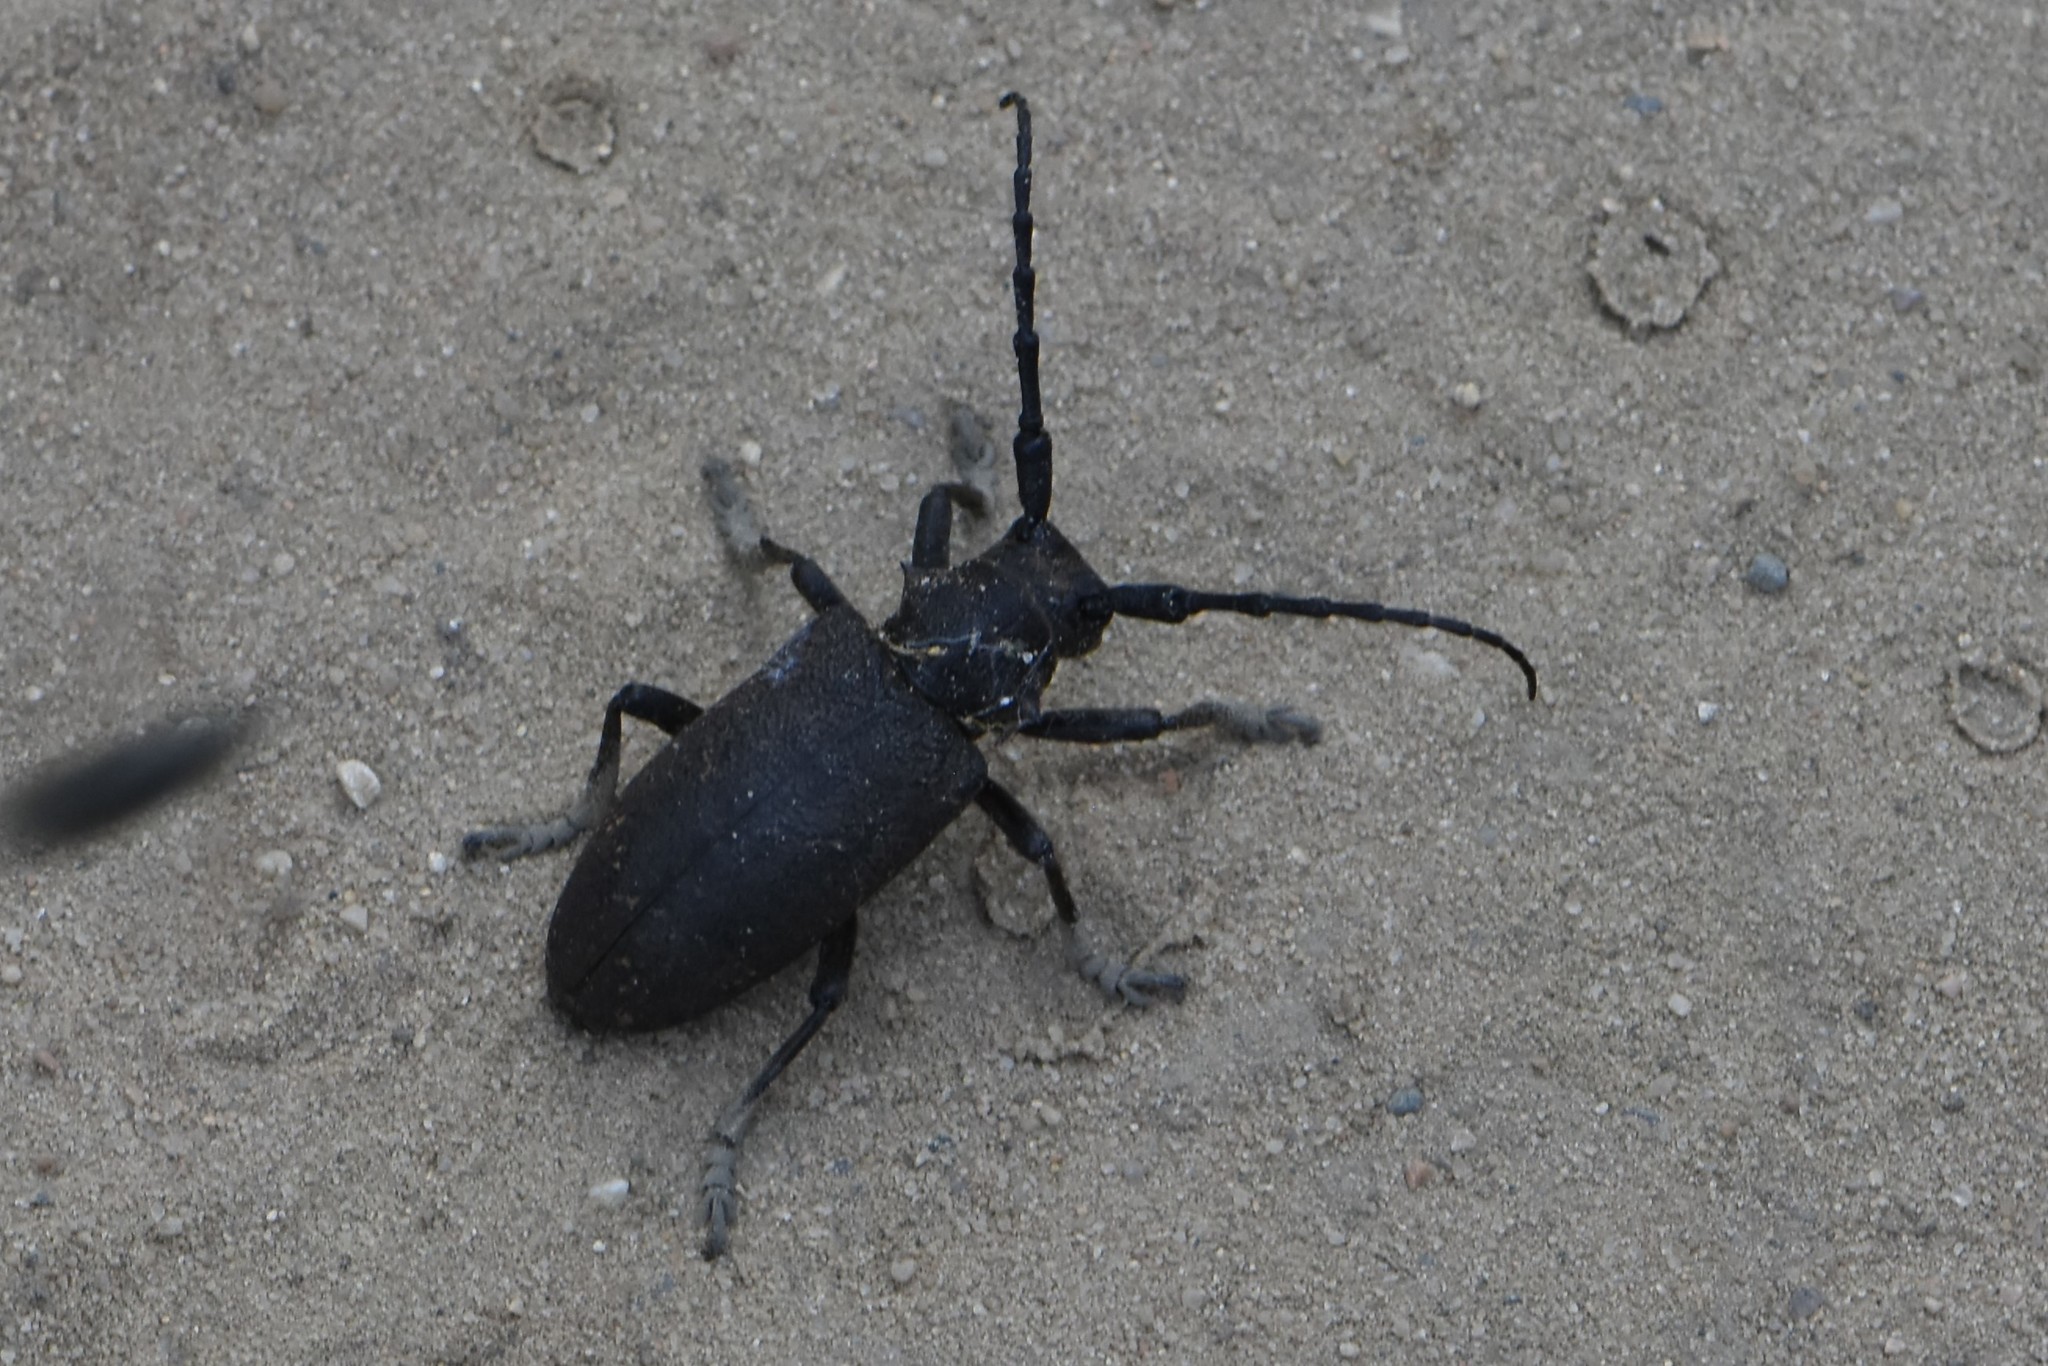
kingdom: Animalia
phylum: Arthropoda
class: Insecta
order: Coleoptera
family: Cerambycidae
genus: Lamia
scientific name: Lamia textor
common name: Weaver beetle
